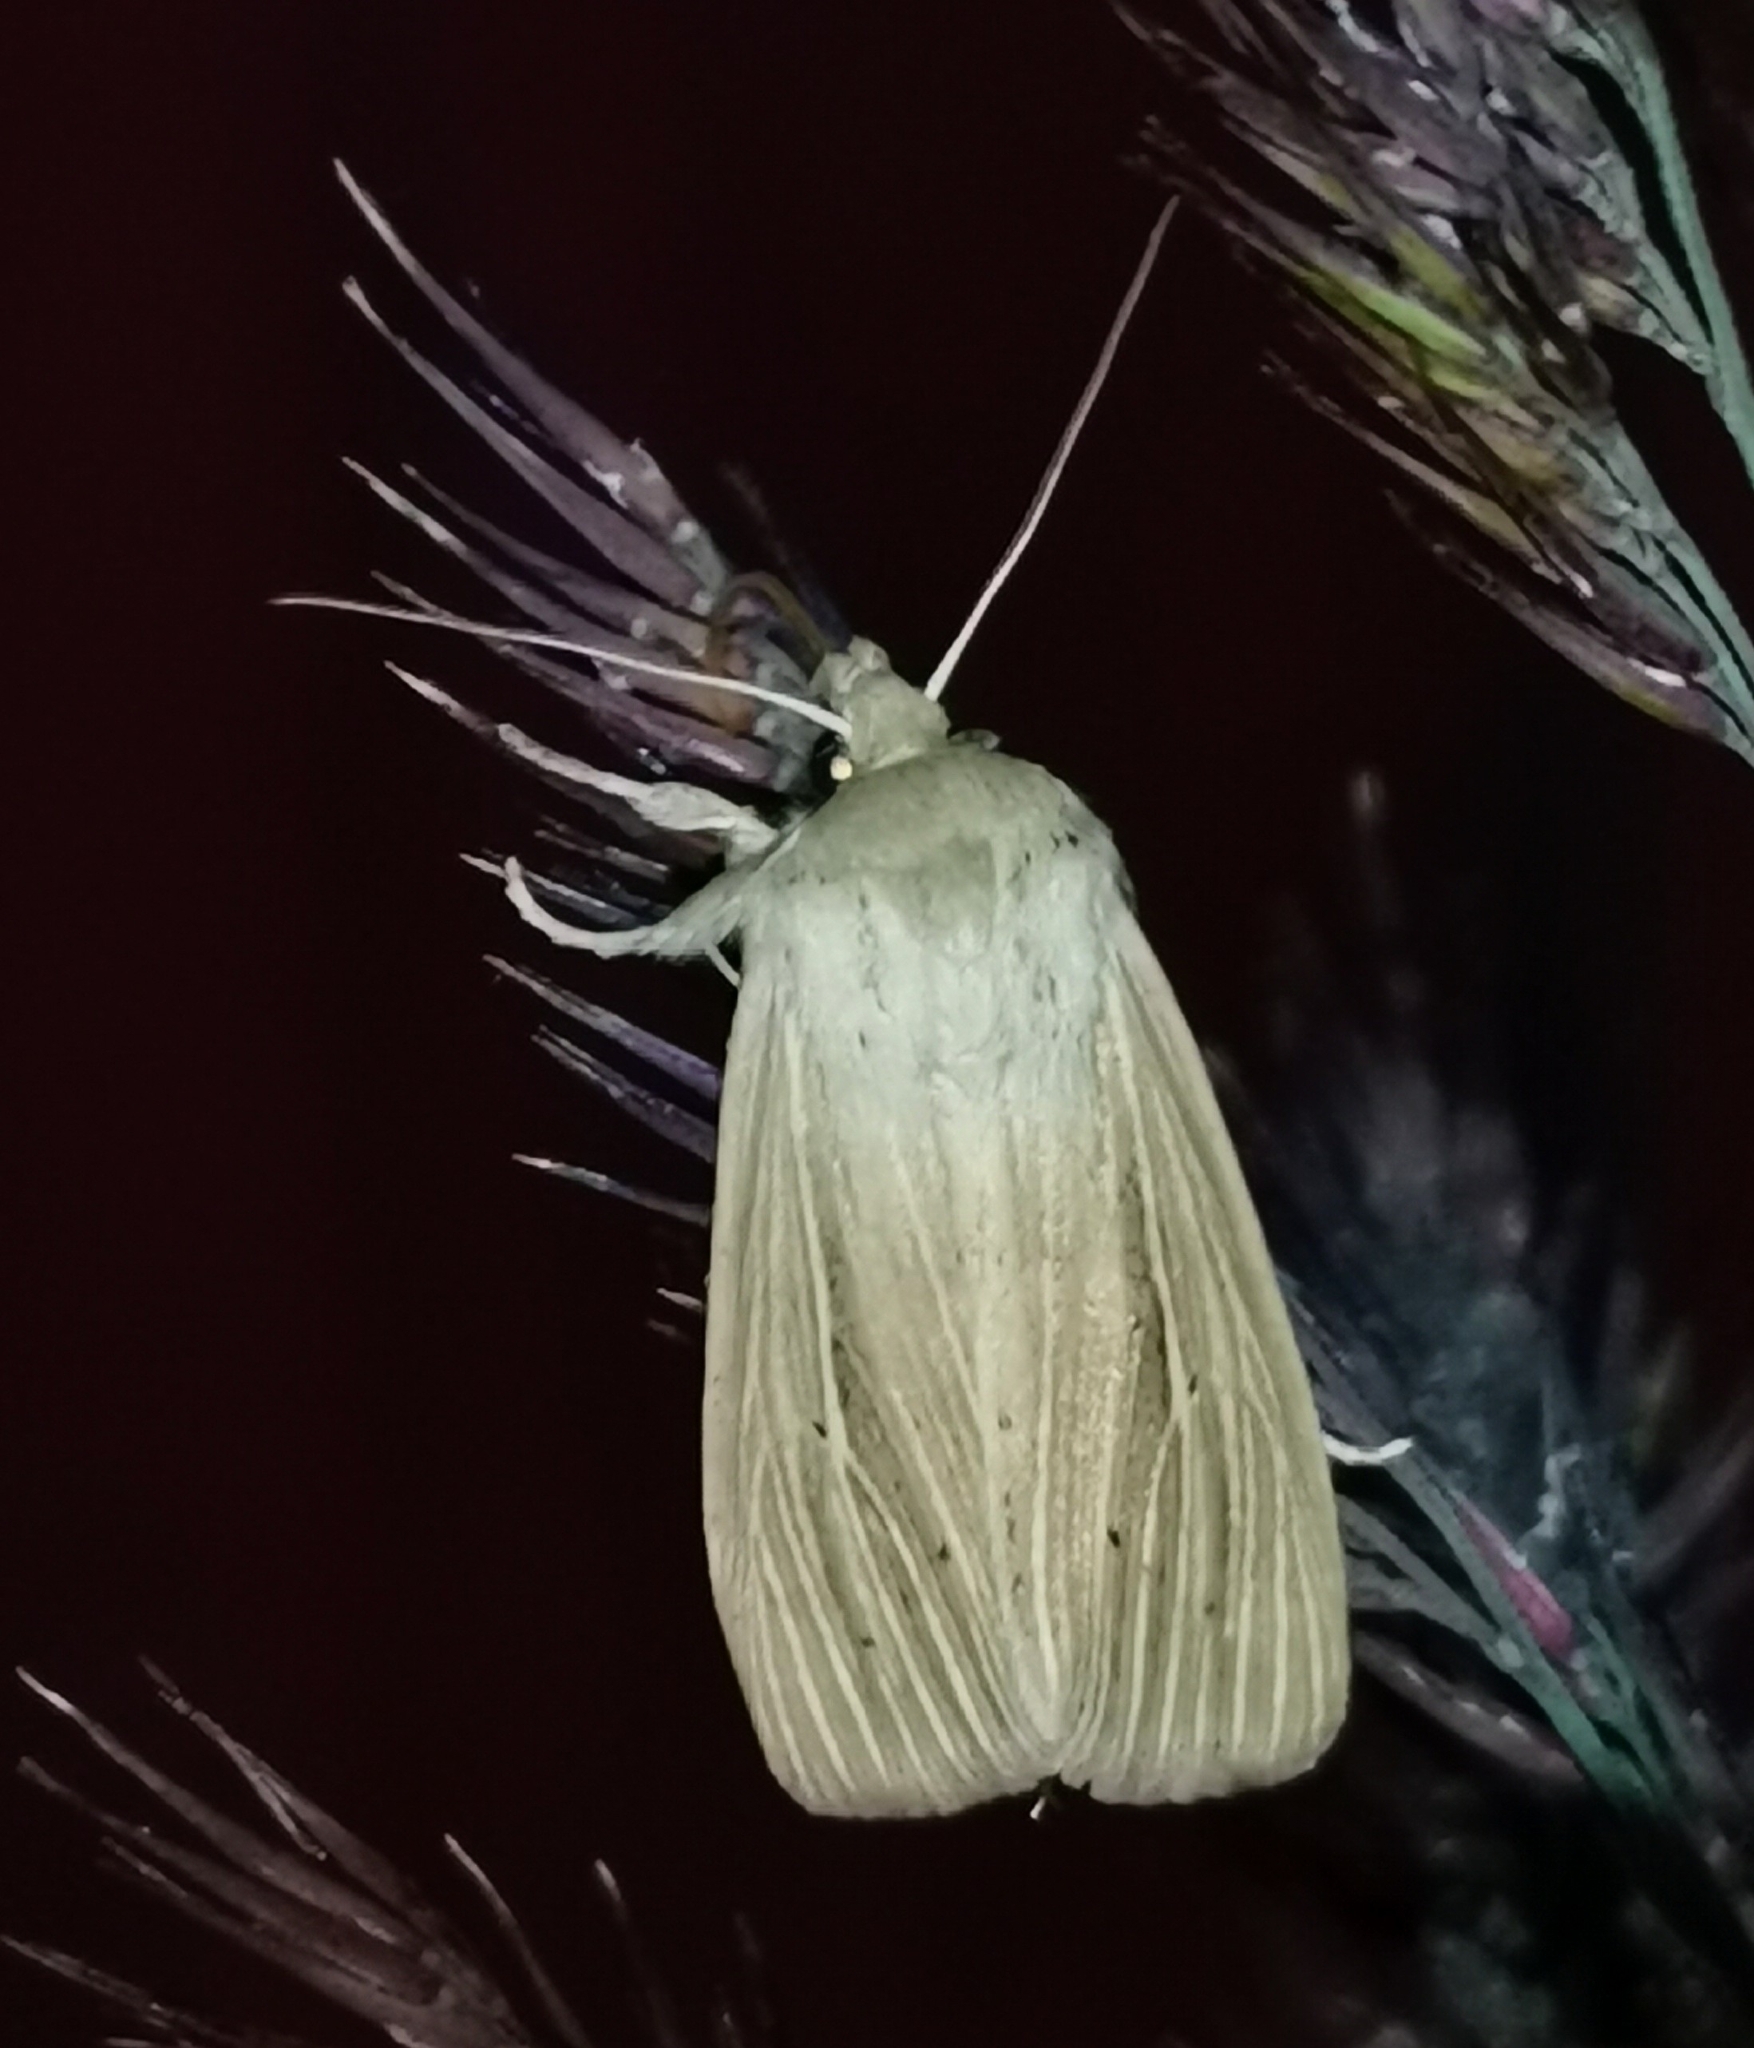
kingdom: Animalia
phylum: Arthropoda
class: Insecta
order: Lepidoptera
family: Noctuidae
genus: Mythimna
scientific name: Mythimna impura
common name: Smoky wainscot
